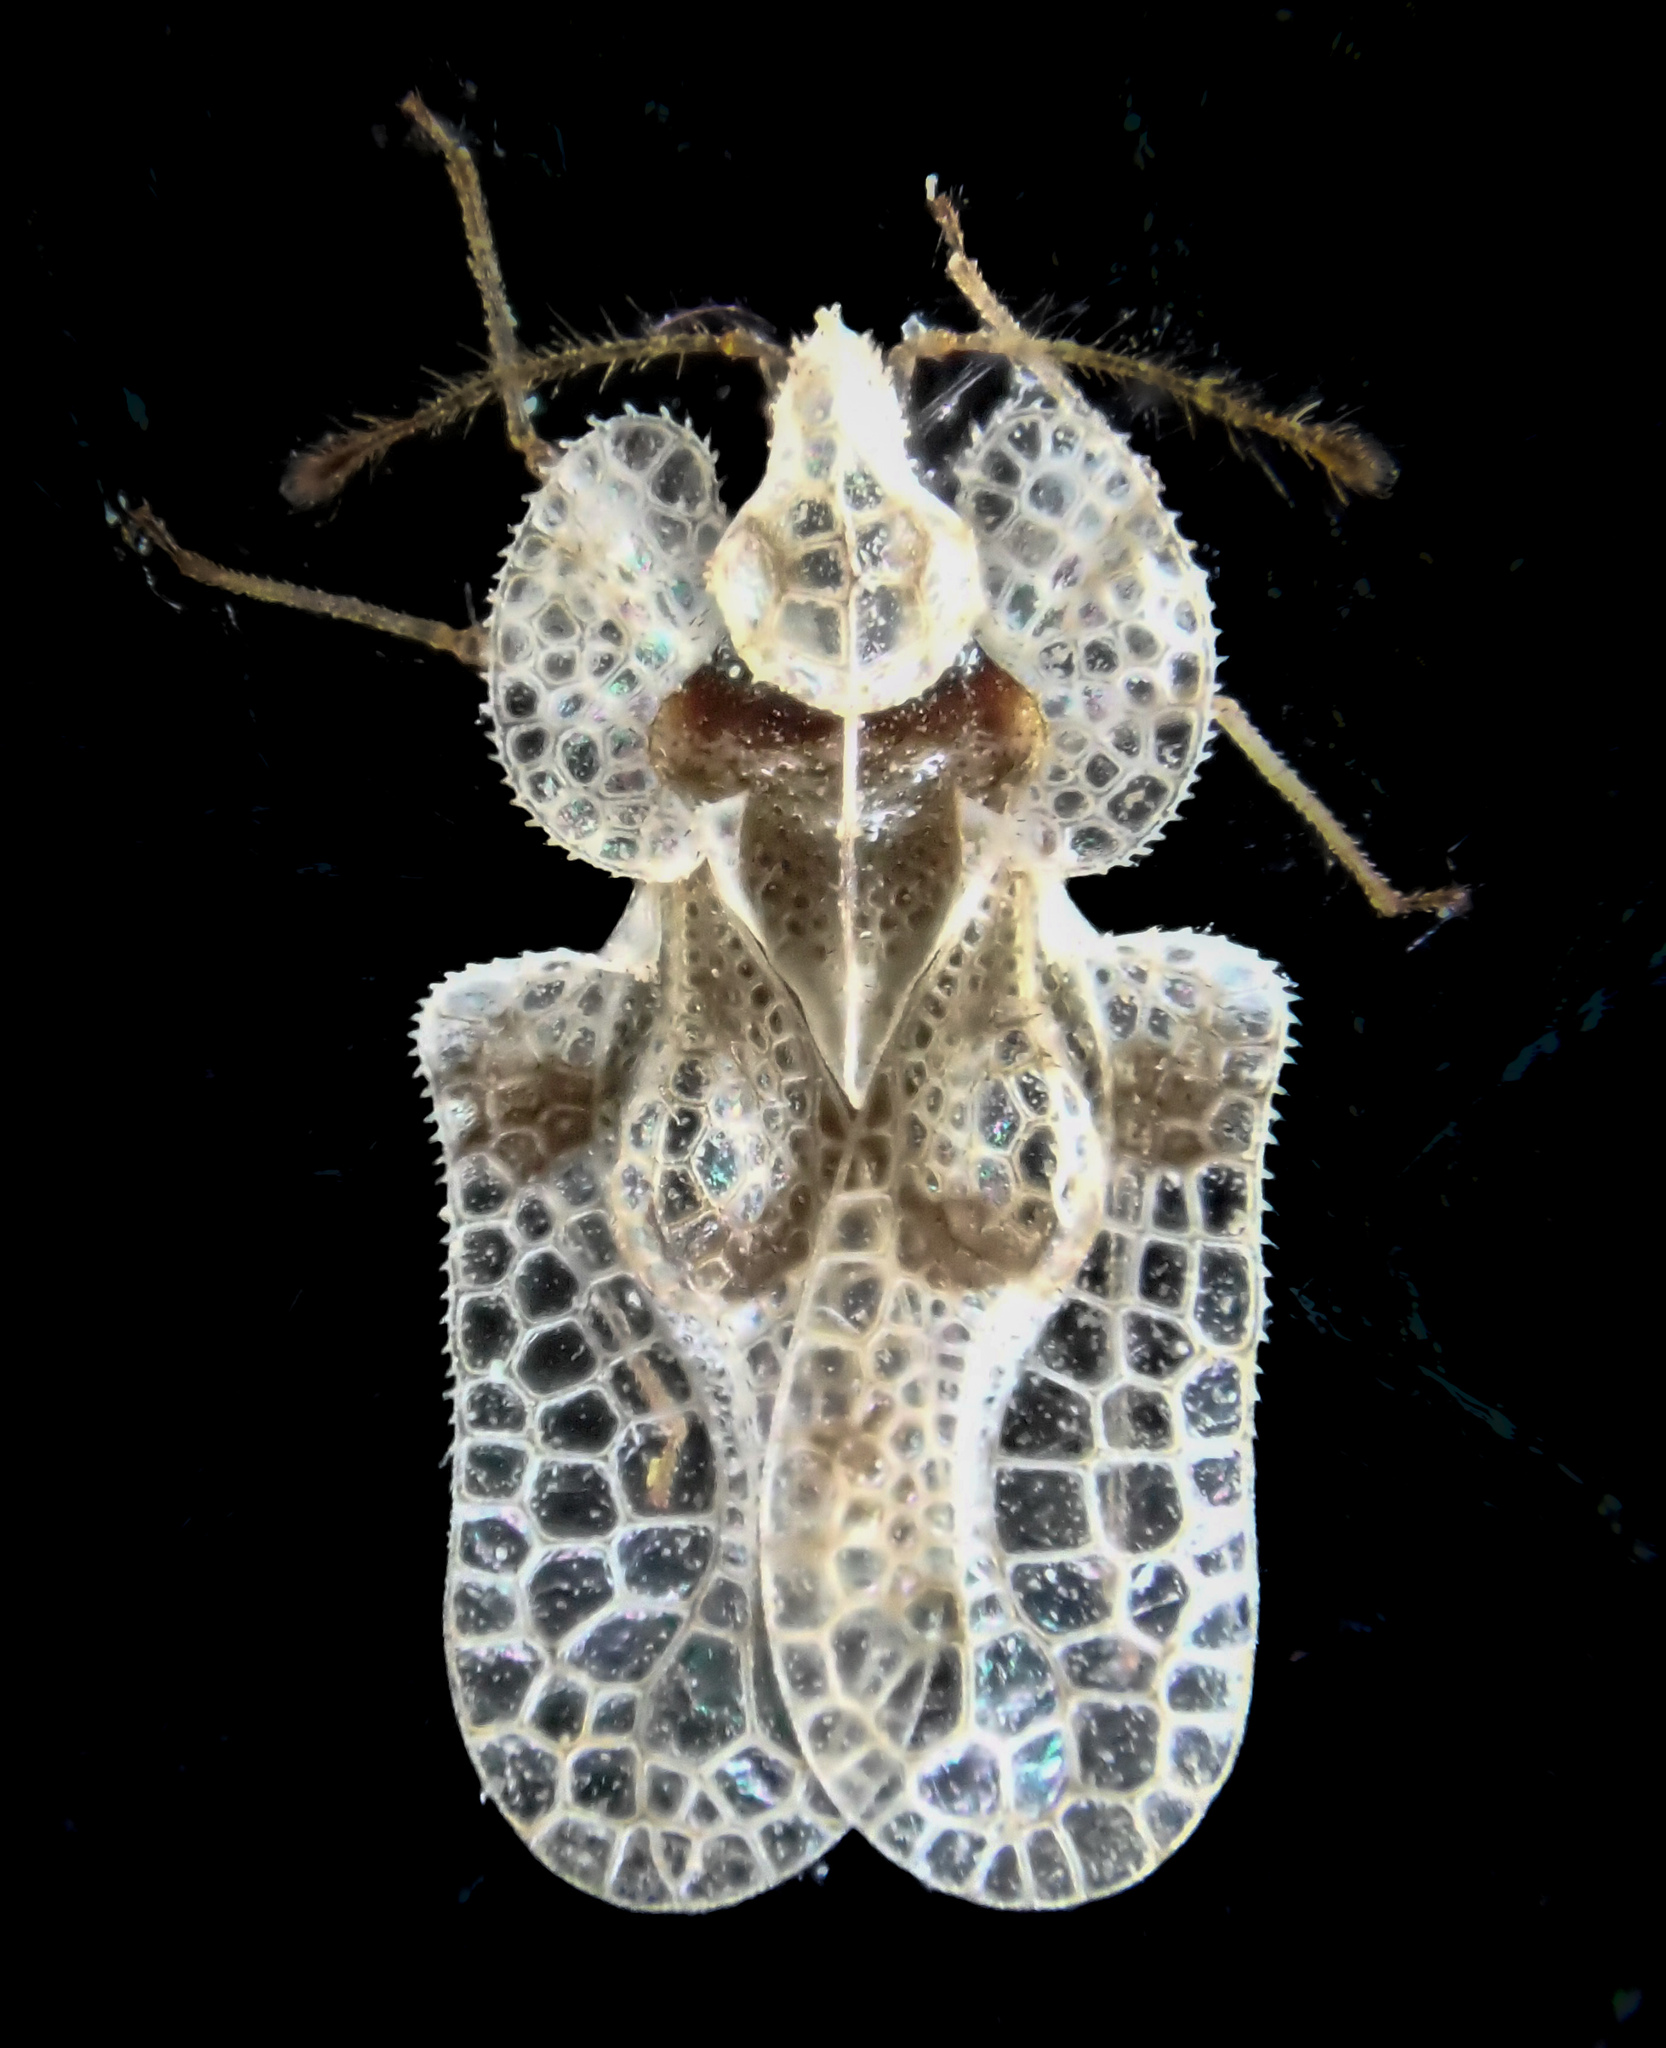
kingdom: Animalia
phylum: Arthropoda
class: Insecta
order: Hemiptera
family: Tingidae
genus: Corythucha
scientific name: Corythucha arcuata
